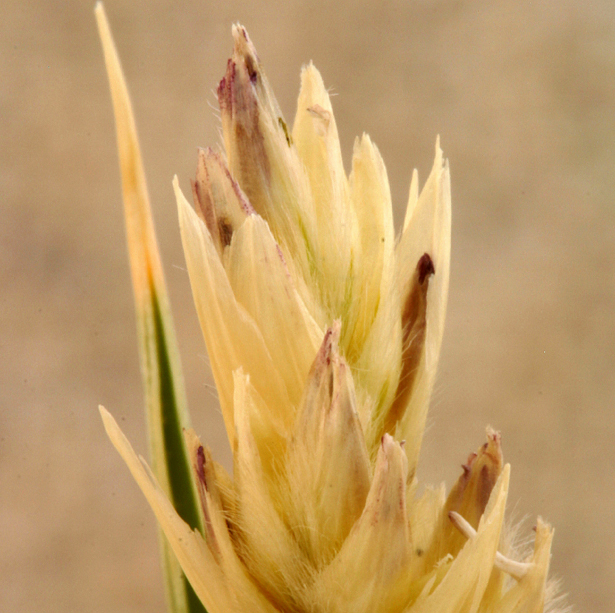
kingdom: Plantae
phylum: Tracheophyta
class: Liliopsida
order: Poales
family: Poaceae
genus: Swallenia
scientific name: Swallenia alexandrae
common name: Eureka dune grass
